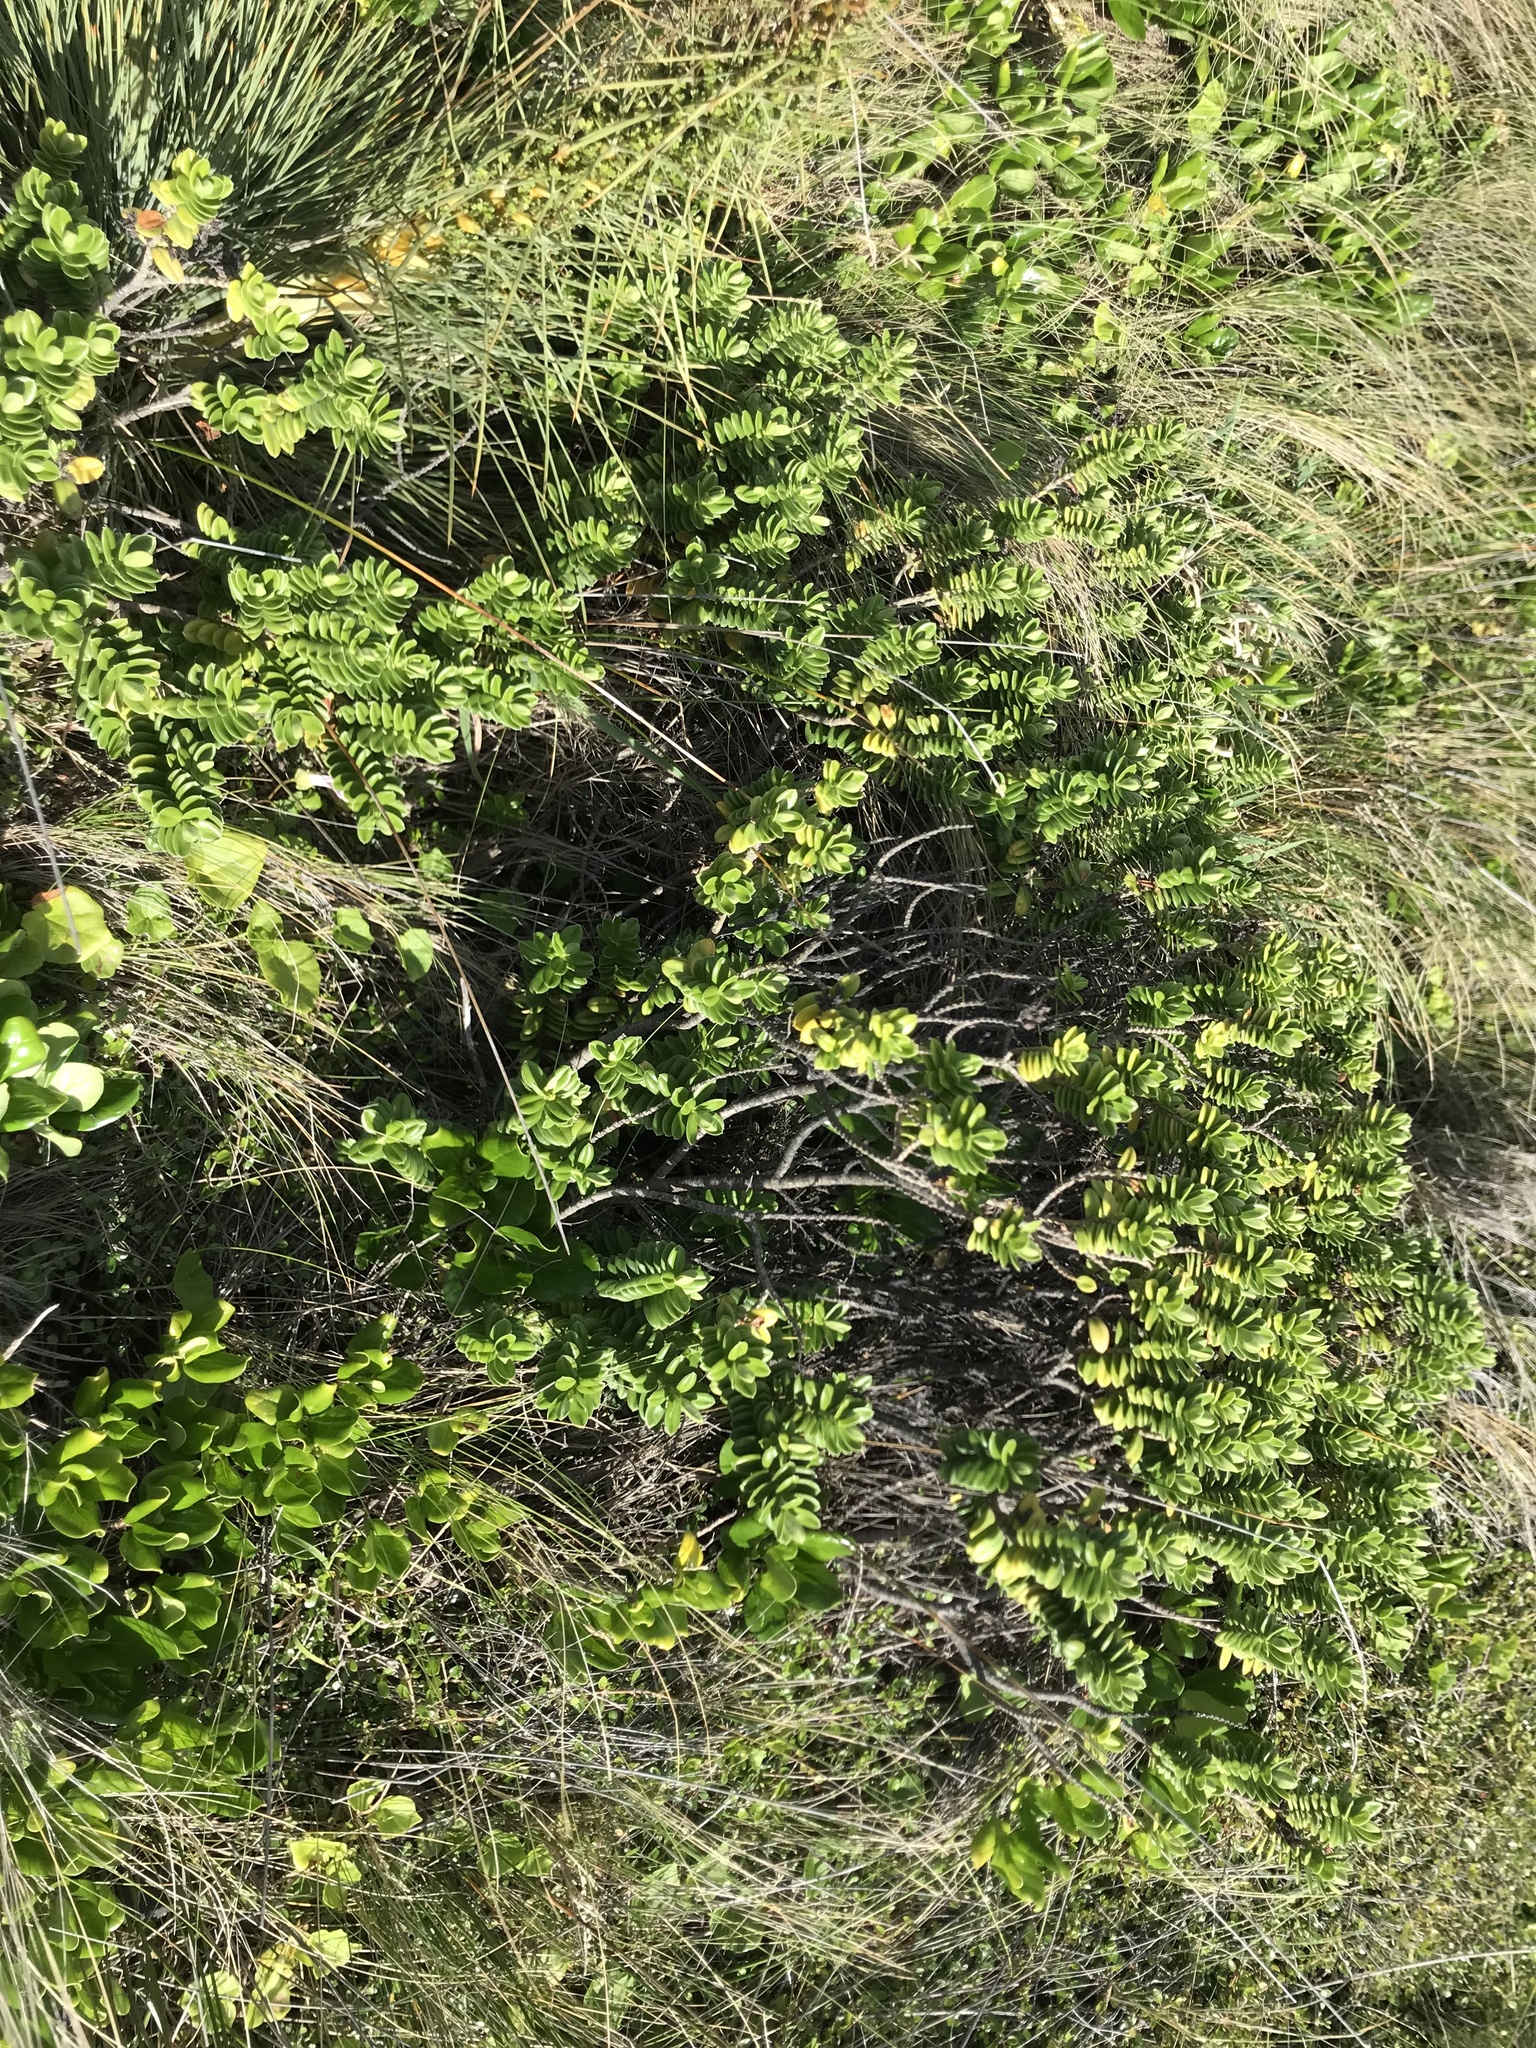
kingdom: Plantae
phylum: Tracheophyta
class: Magnoliopsida
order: Lamiales
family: Plantaginaceae
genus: Veronica
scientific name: Veronica elliptica
